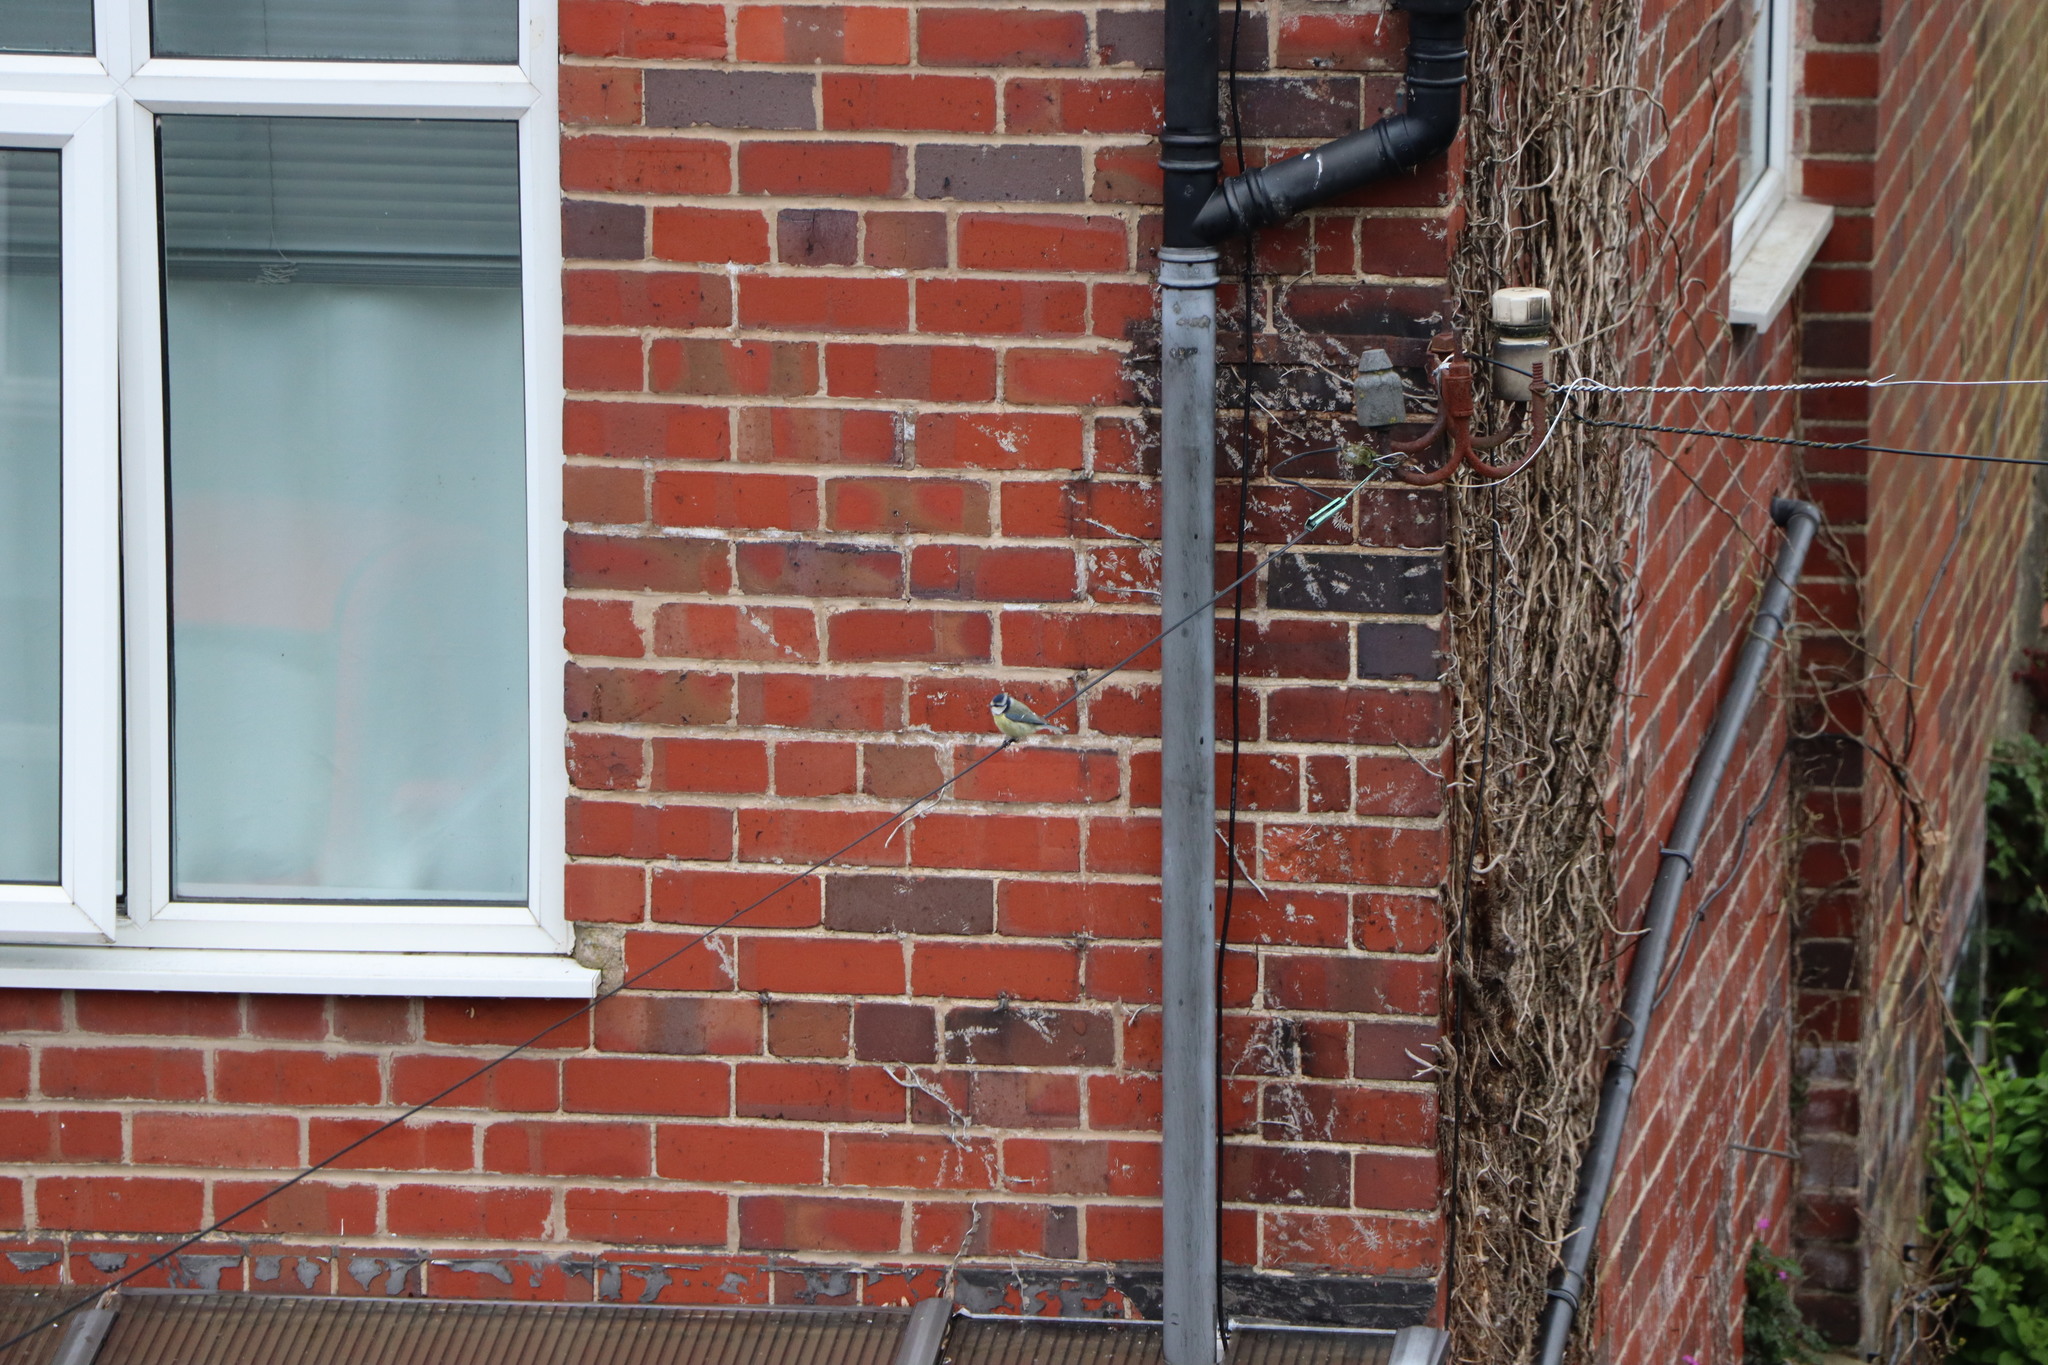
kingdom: Animalia
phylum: Chordata
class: Aves
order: Passeriformes
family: Paridae
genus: Cyanistes
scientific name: Cyanistes caeruleus
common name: Eurasian blue tit
